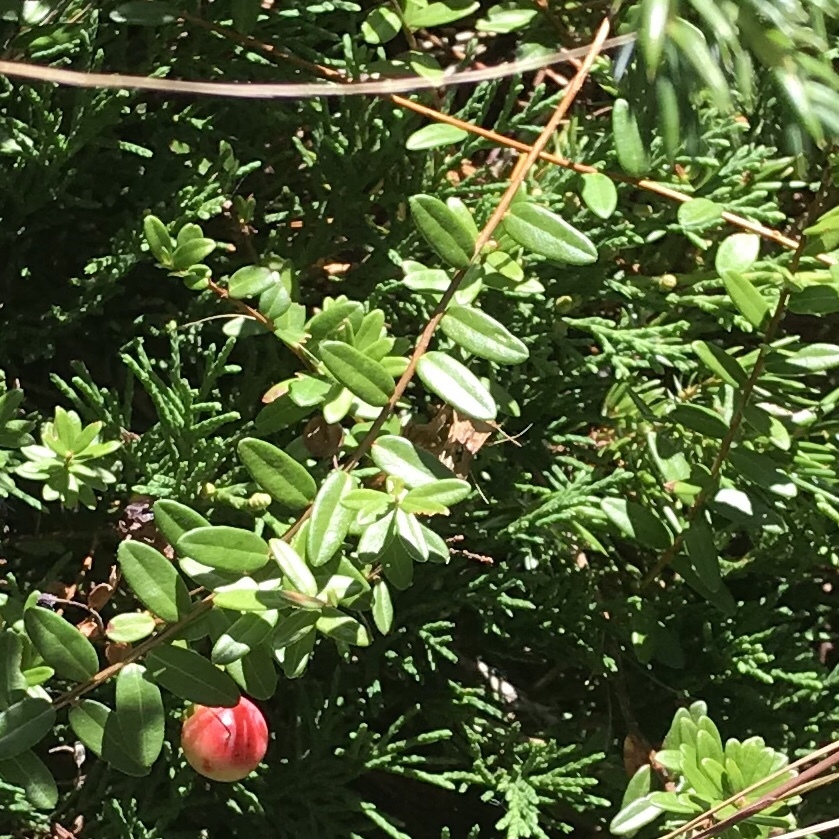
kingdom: Plantae
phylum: Tracheophyta
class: Magnoliopsida
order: Ericales
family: Ericaceae
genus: Vaccinium
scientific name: Vaccinium macrocarpon
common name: American cranberry
